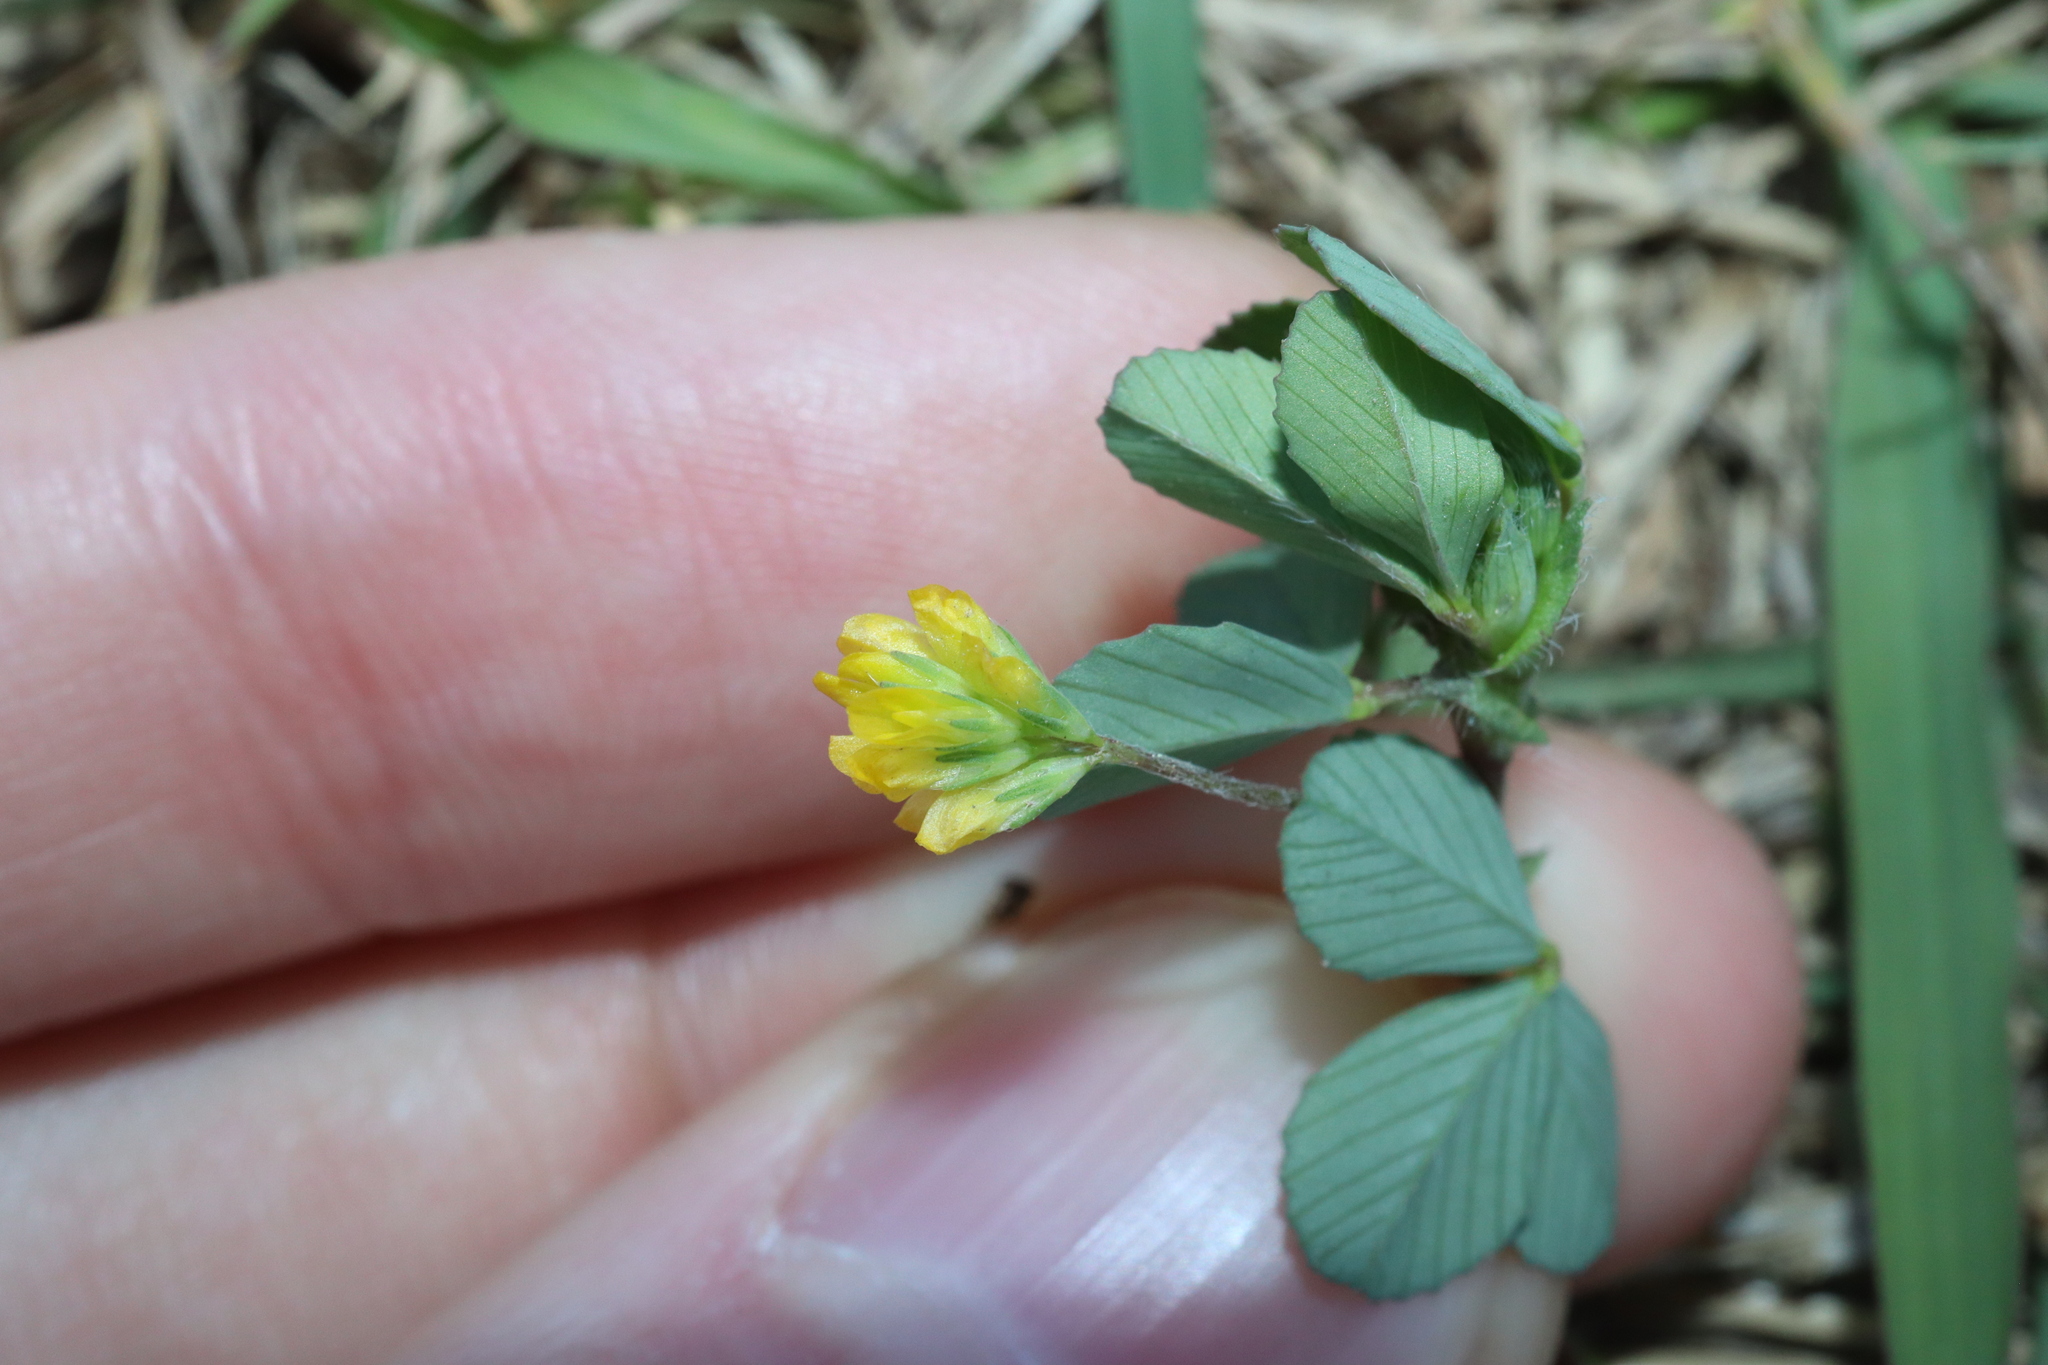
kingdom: Plantae
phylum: Tracheophyta
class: Magnoliopsida
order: Fabales
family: Fabaceae
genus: Trifolium
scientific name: Trifolium dubium
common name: Suckling clover
